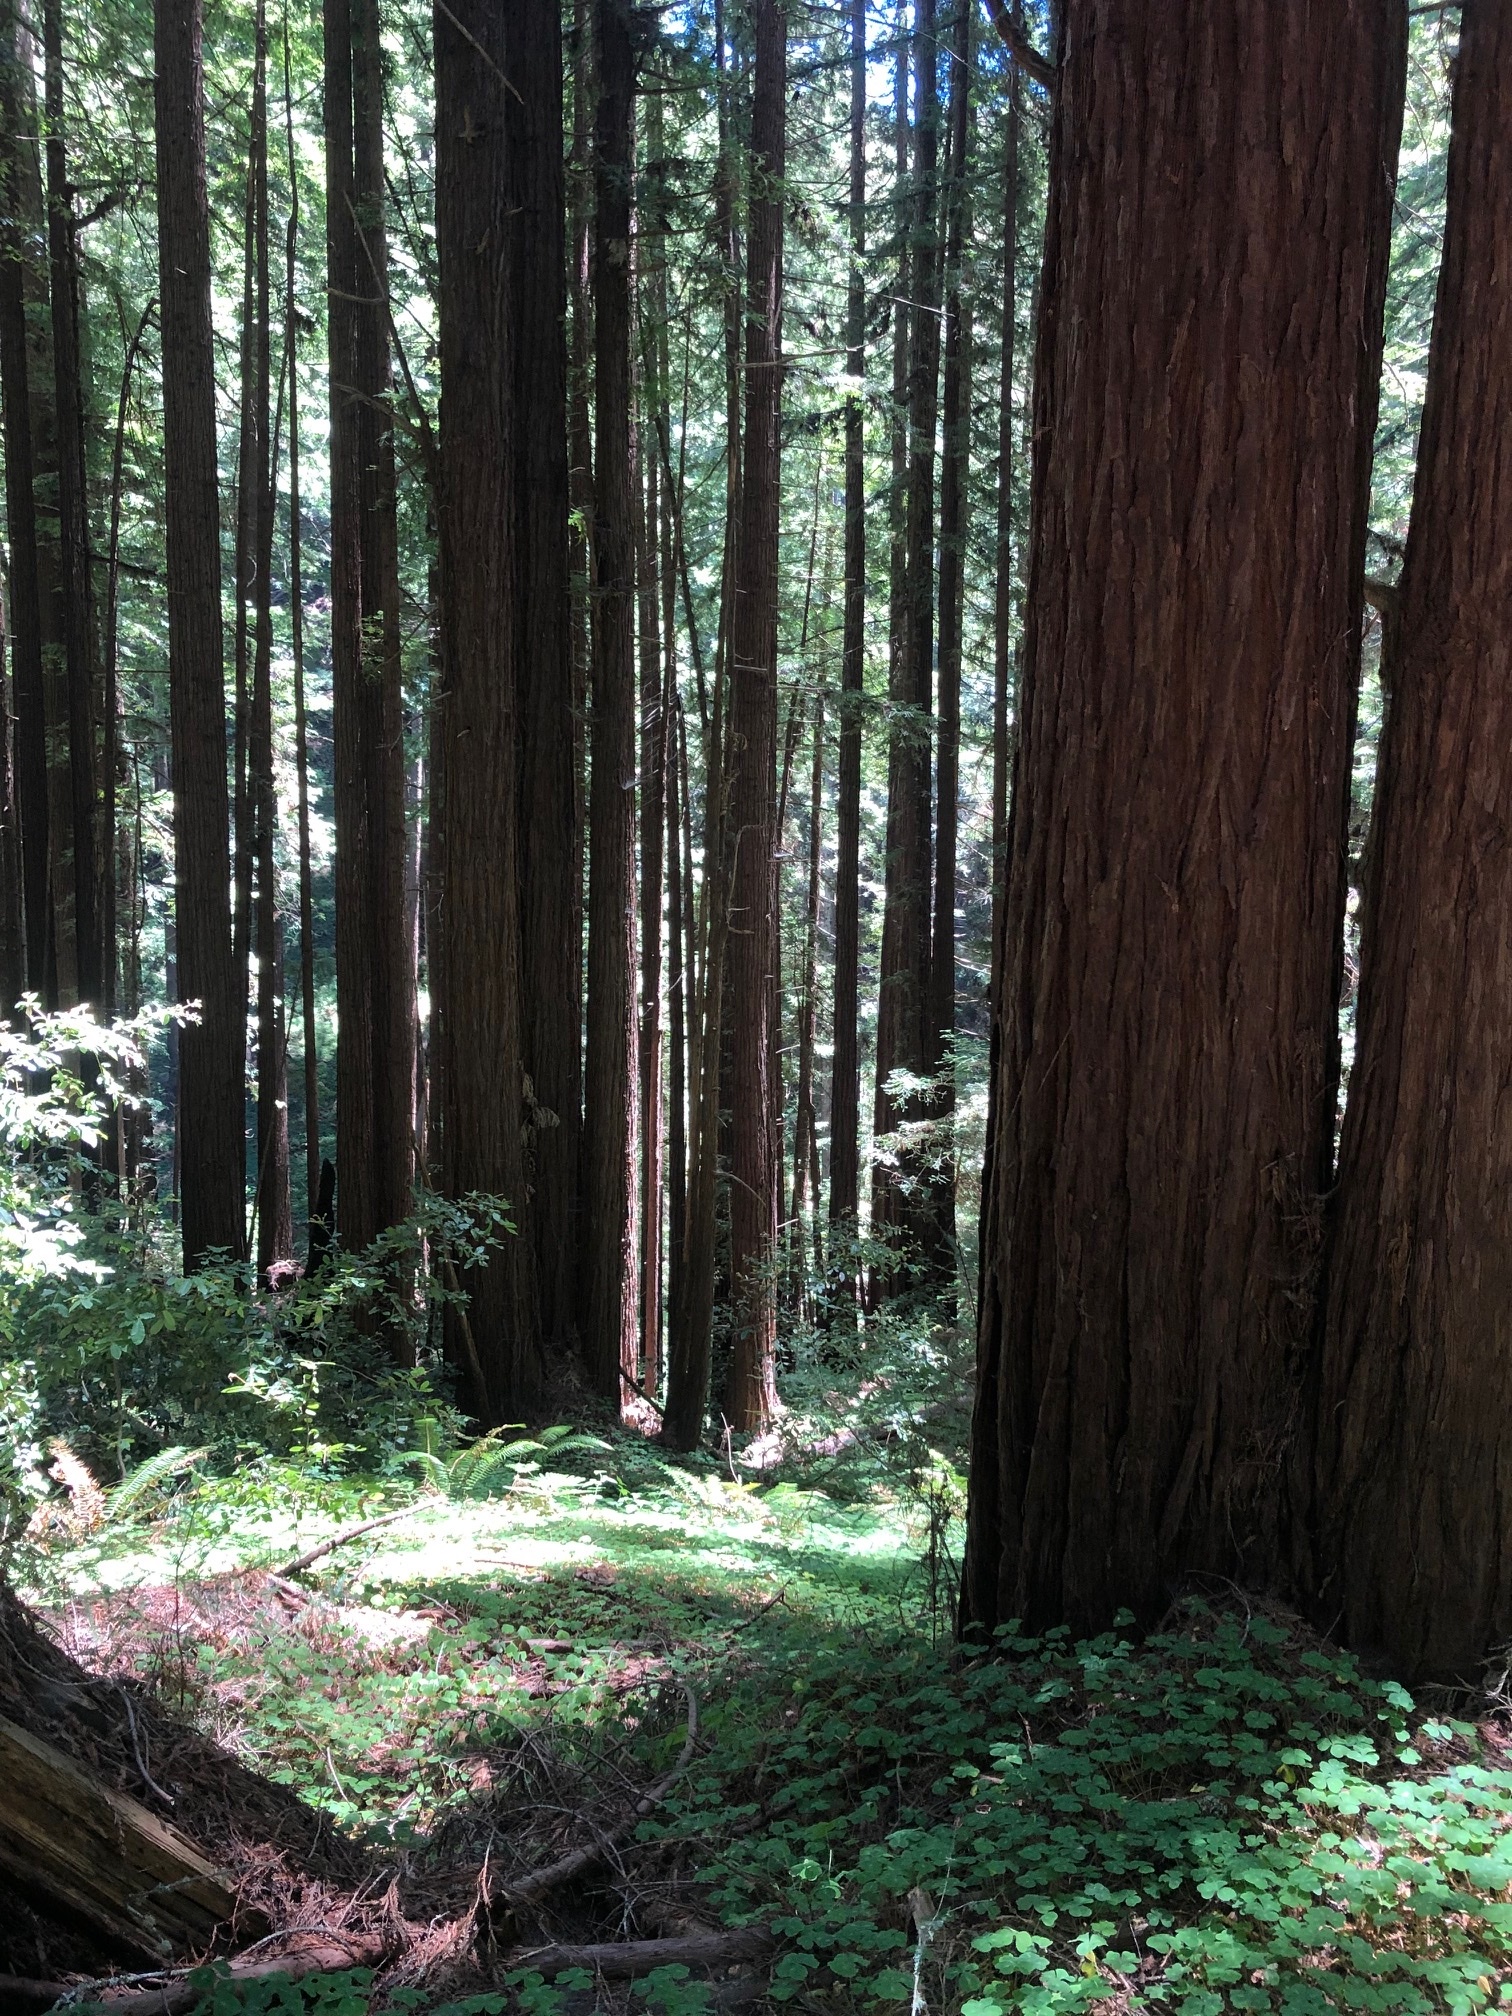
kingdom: Plantae
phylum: Tracheophyta
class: Pinopsida
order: Pinales
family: Cupressaceae
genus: Sequoia
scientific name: Sequoia sempervirens
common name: Coast redwood
